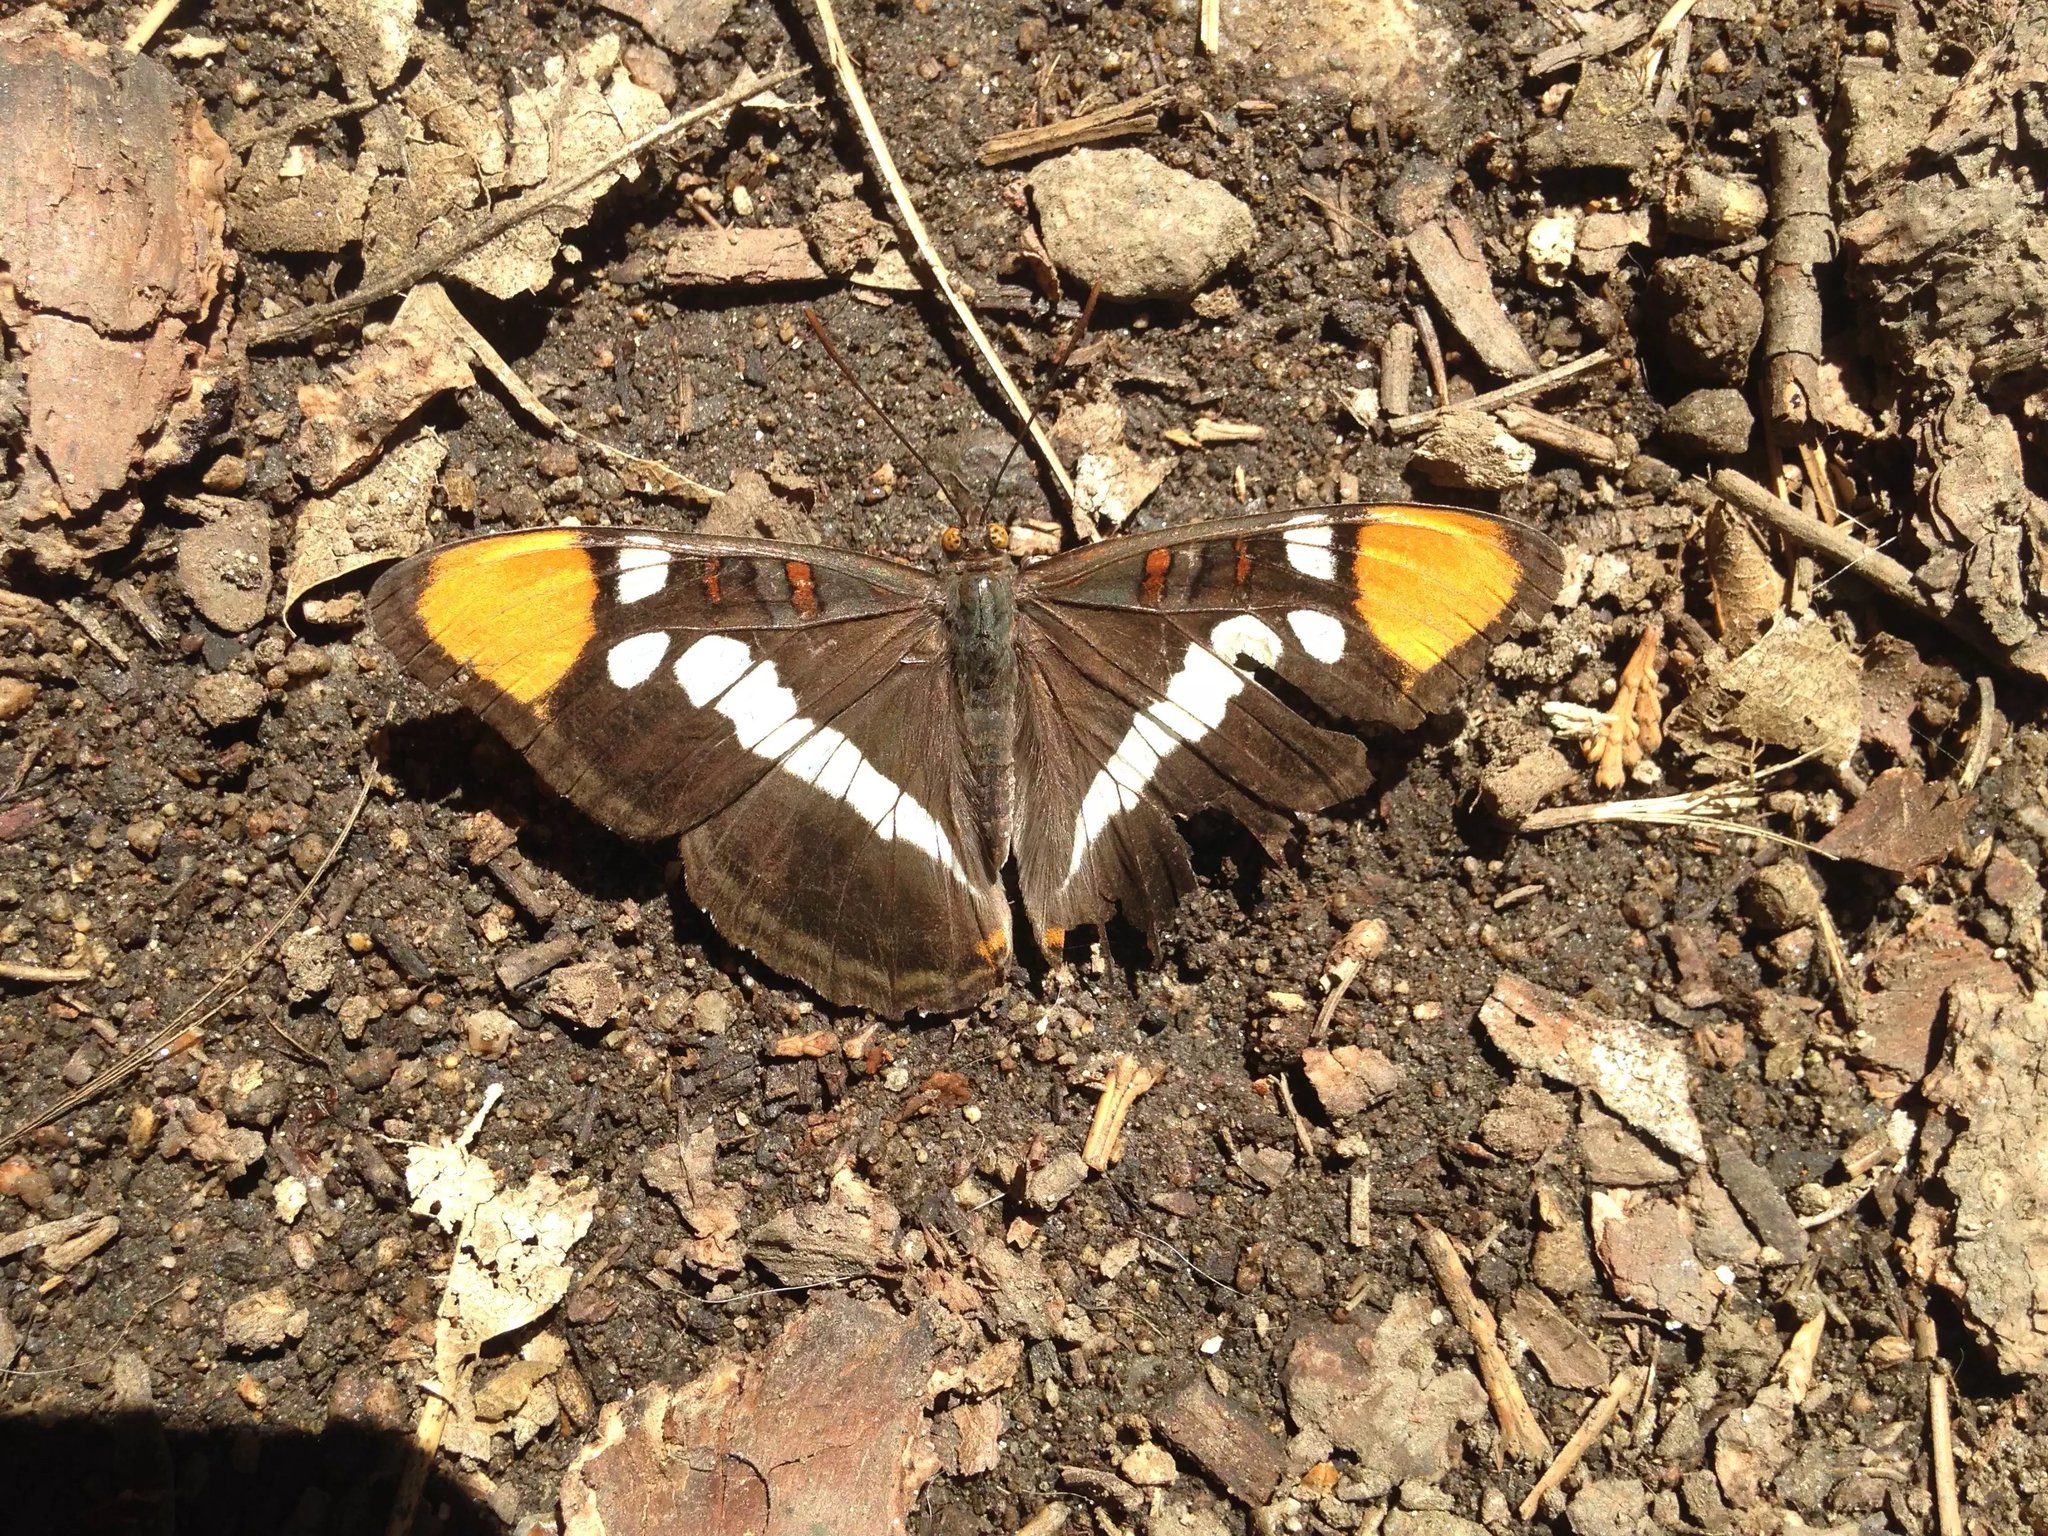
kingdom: Animalia
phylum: Arthropoda
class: Insecta
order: Lepidoptera
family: Nymphalidae
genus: Limenitis
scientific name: Limenitis bredowii
